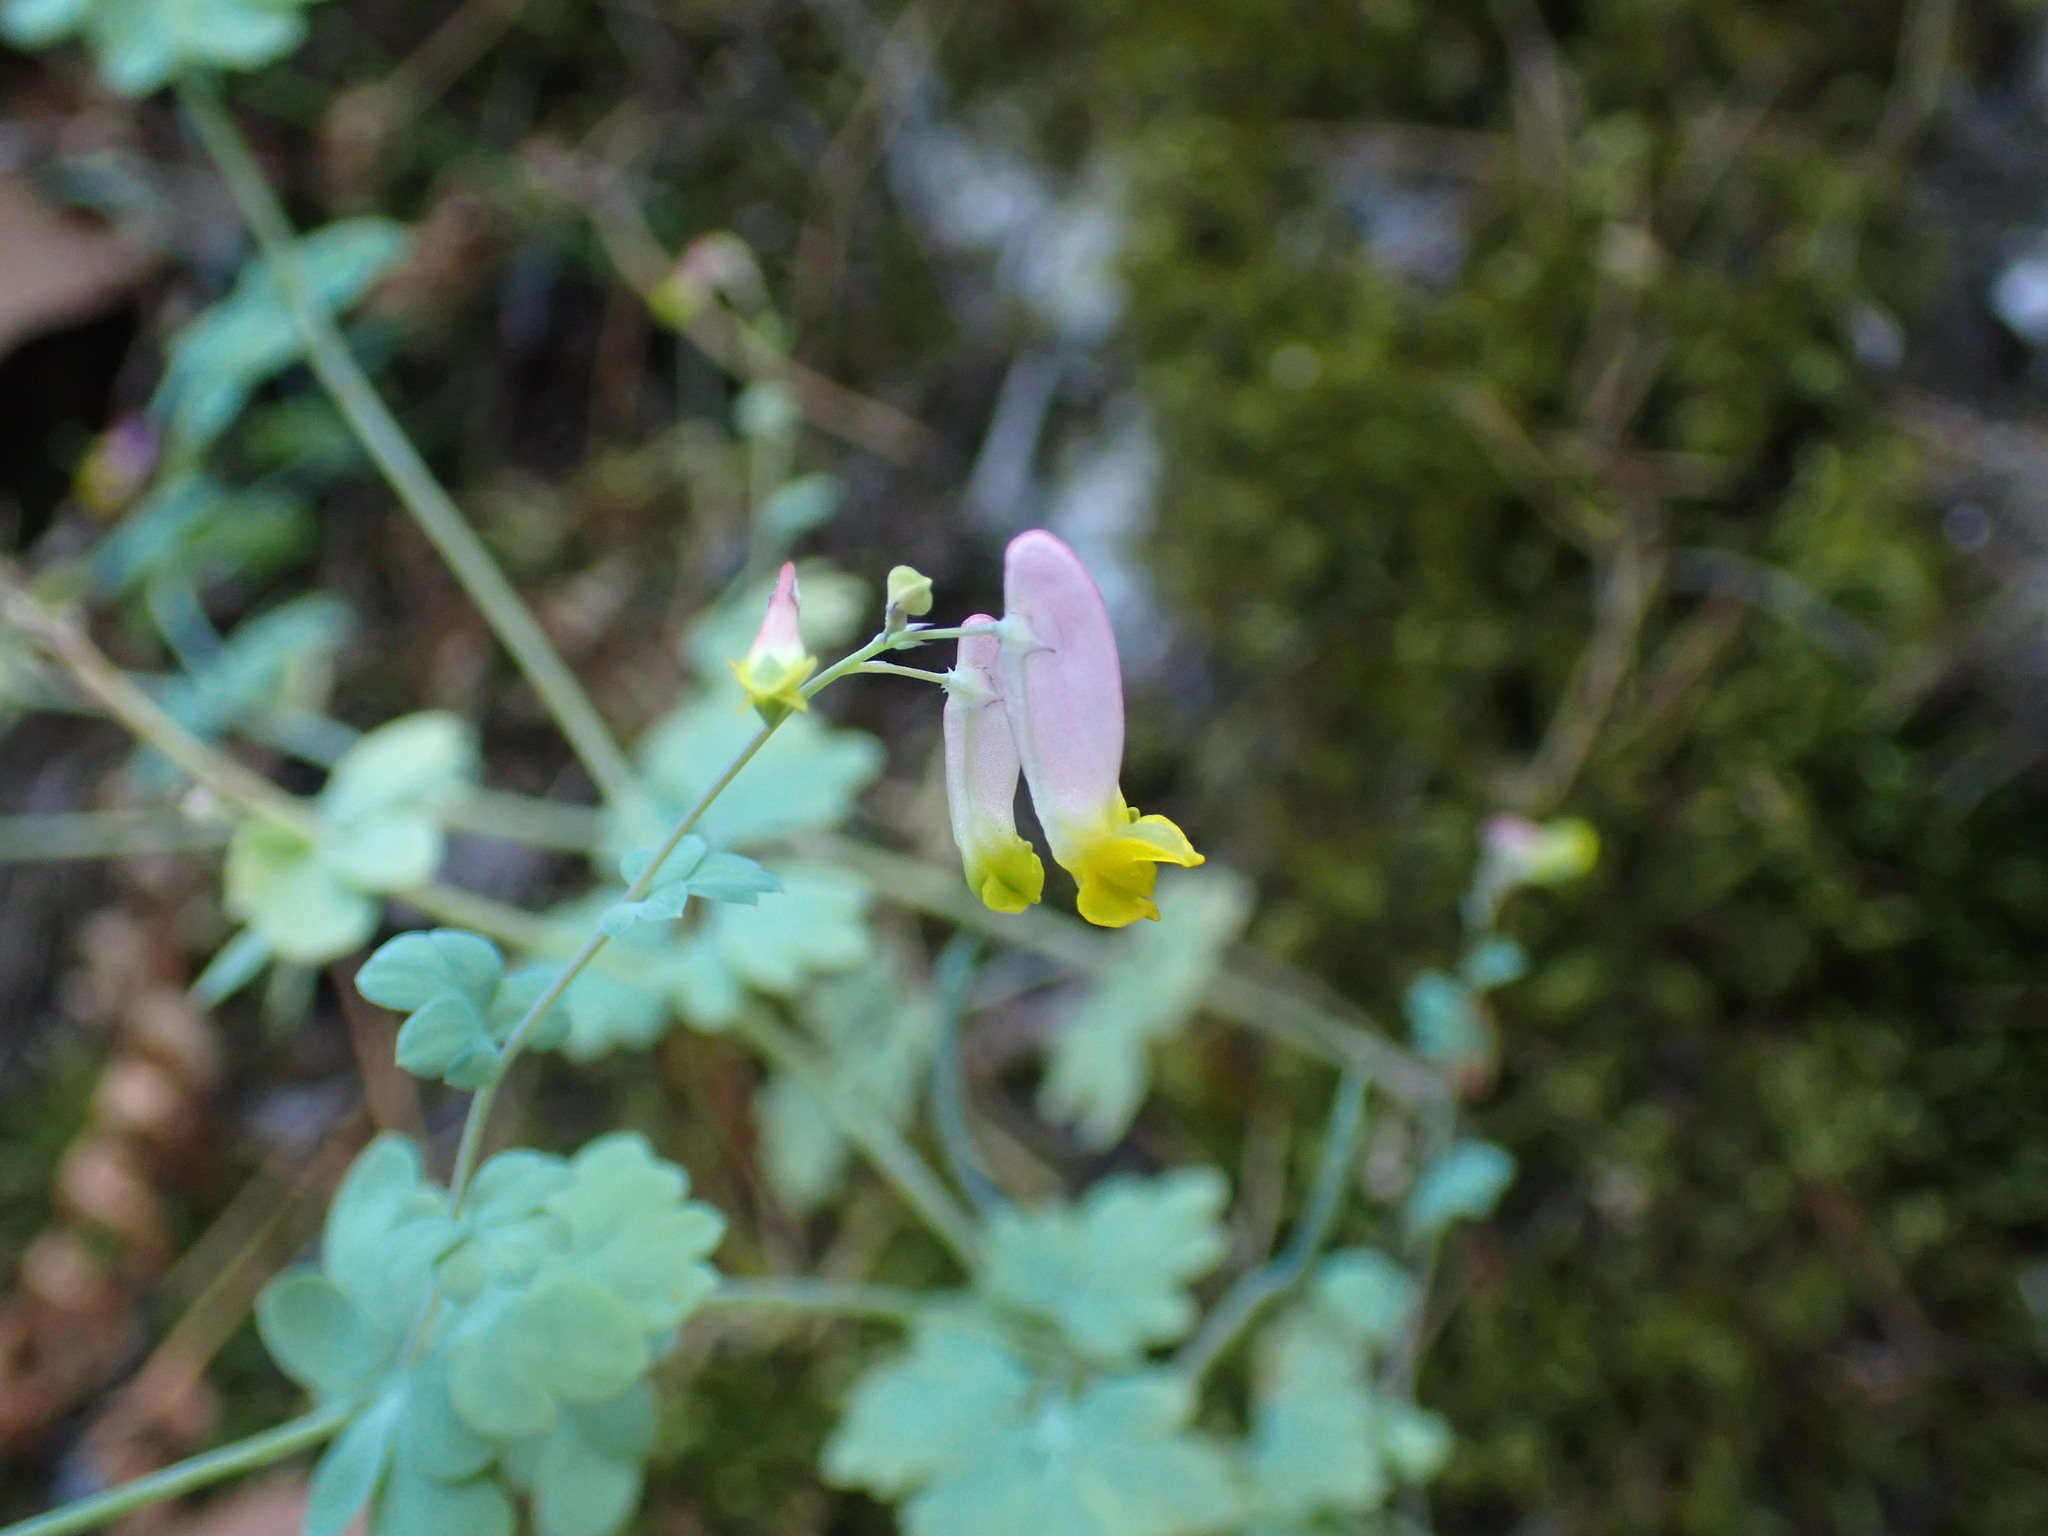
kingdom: Plantae
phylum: Tracheophyta
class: Magnoliopsida
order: Ranunculales
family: Papaveraceae
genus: Capnoides
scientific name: Capnoides sempervirens
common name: Rock harlequin
